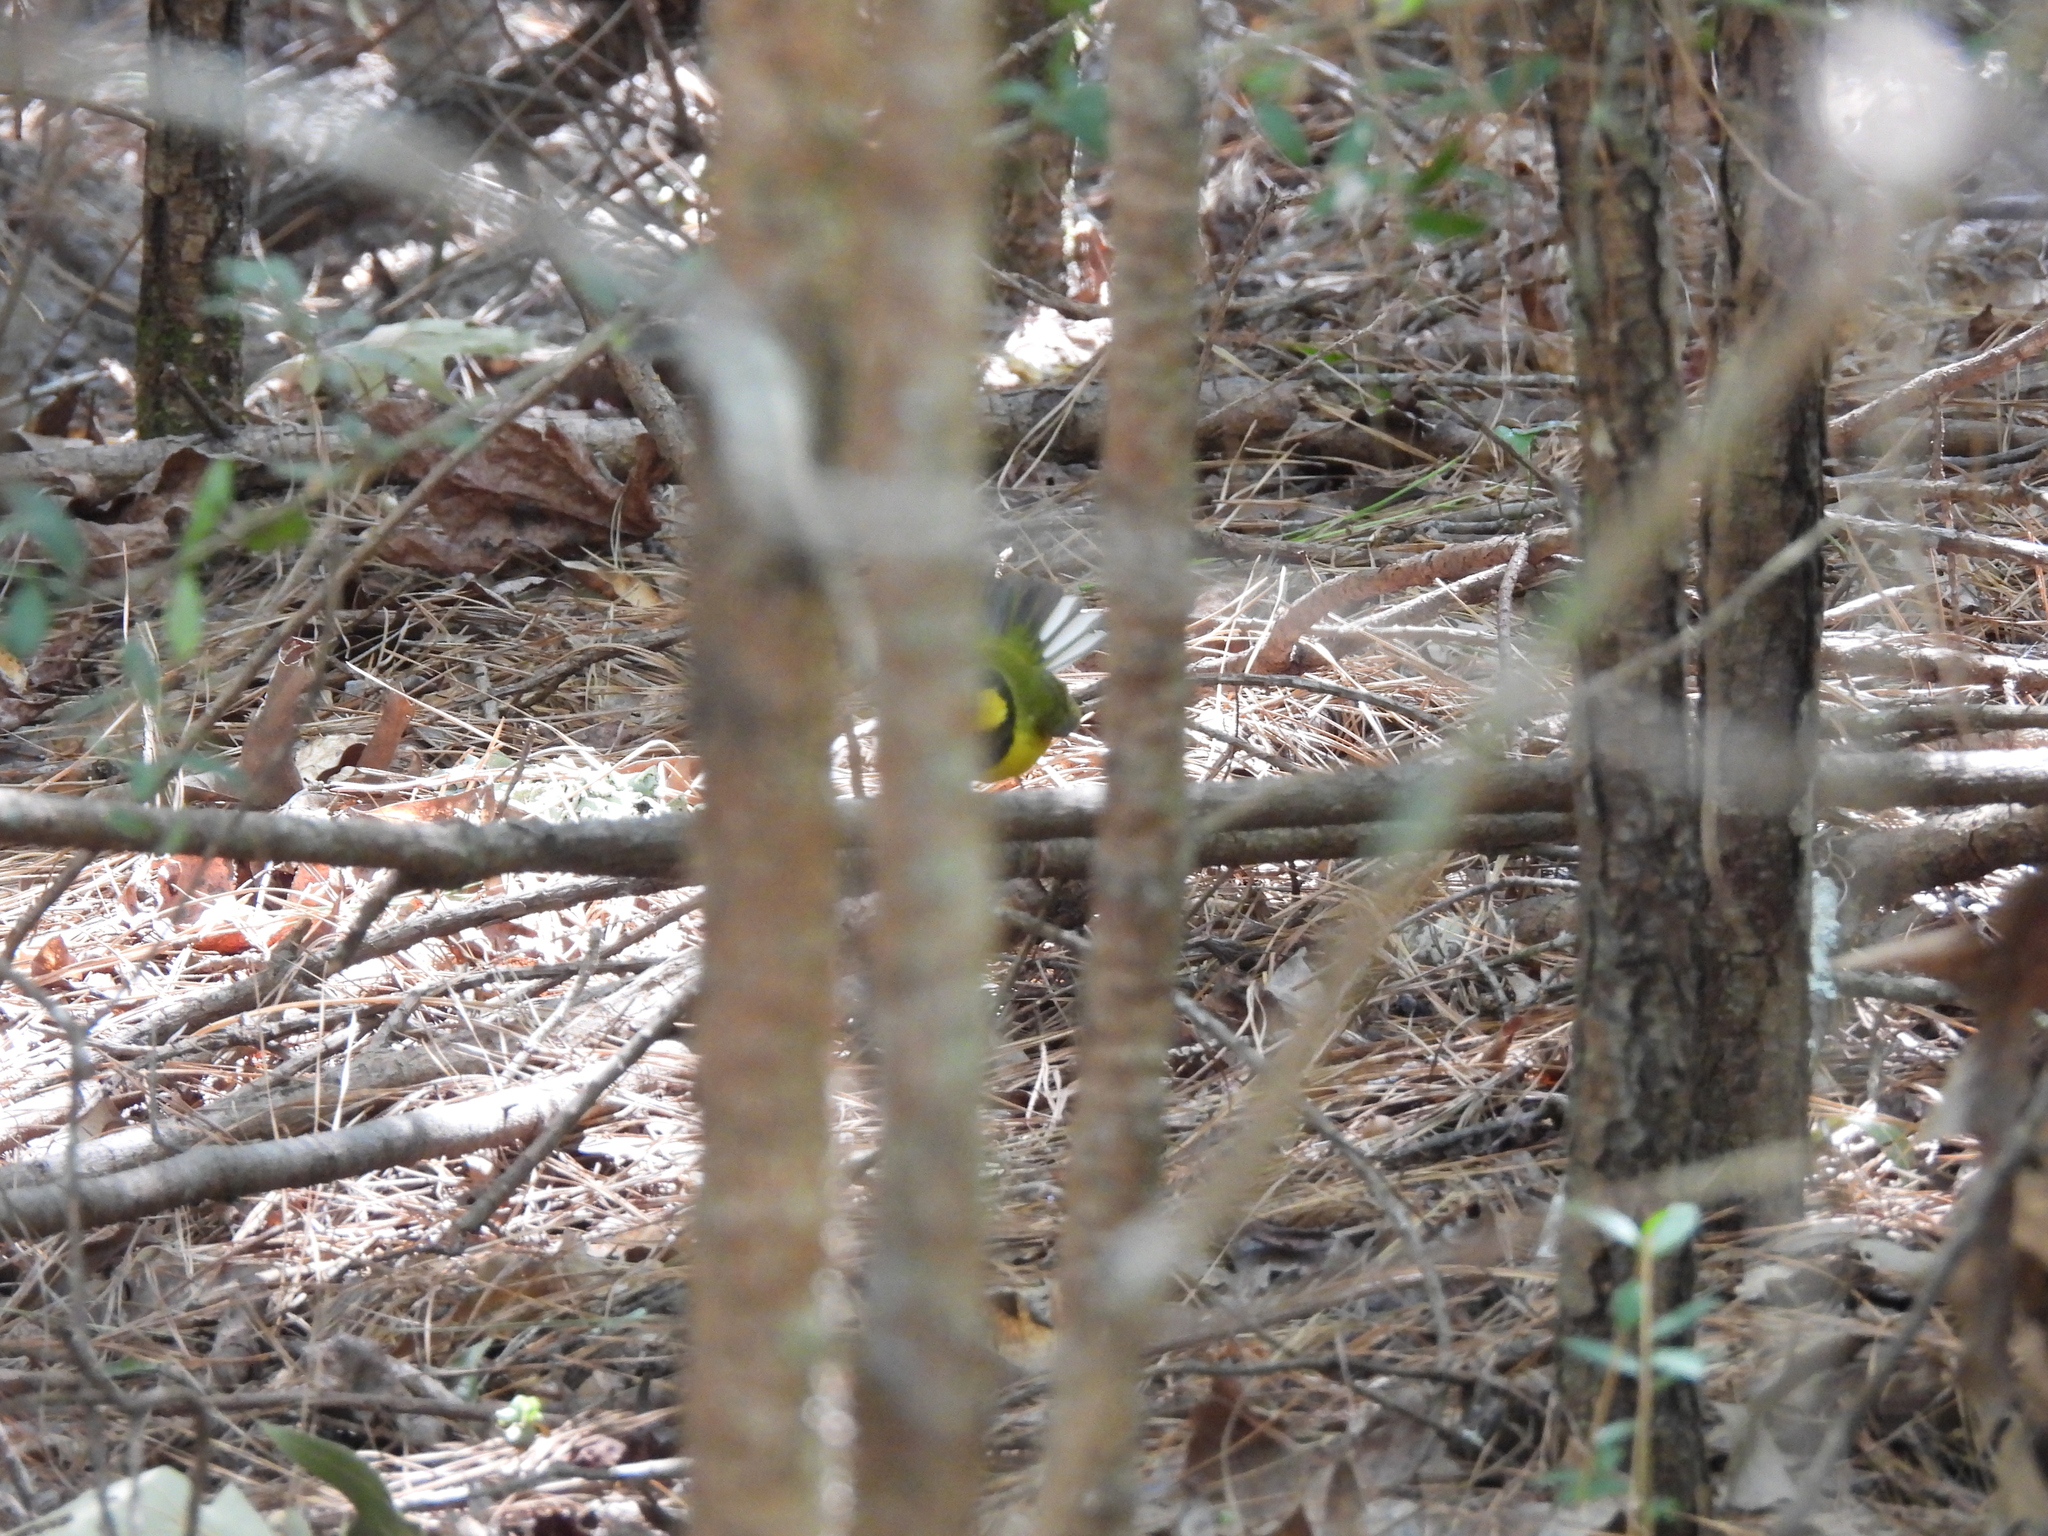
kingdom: Animalia
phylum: Chordata
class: Aves
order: Passeriformes
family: Parulidae
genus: Setophaga
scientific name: Setophaga citrina
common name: Hooded warbler
